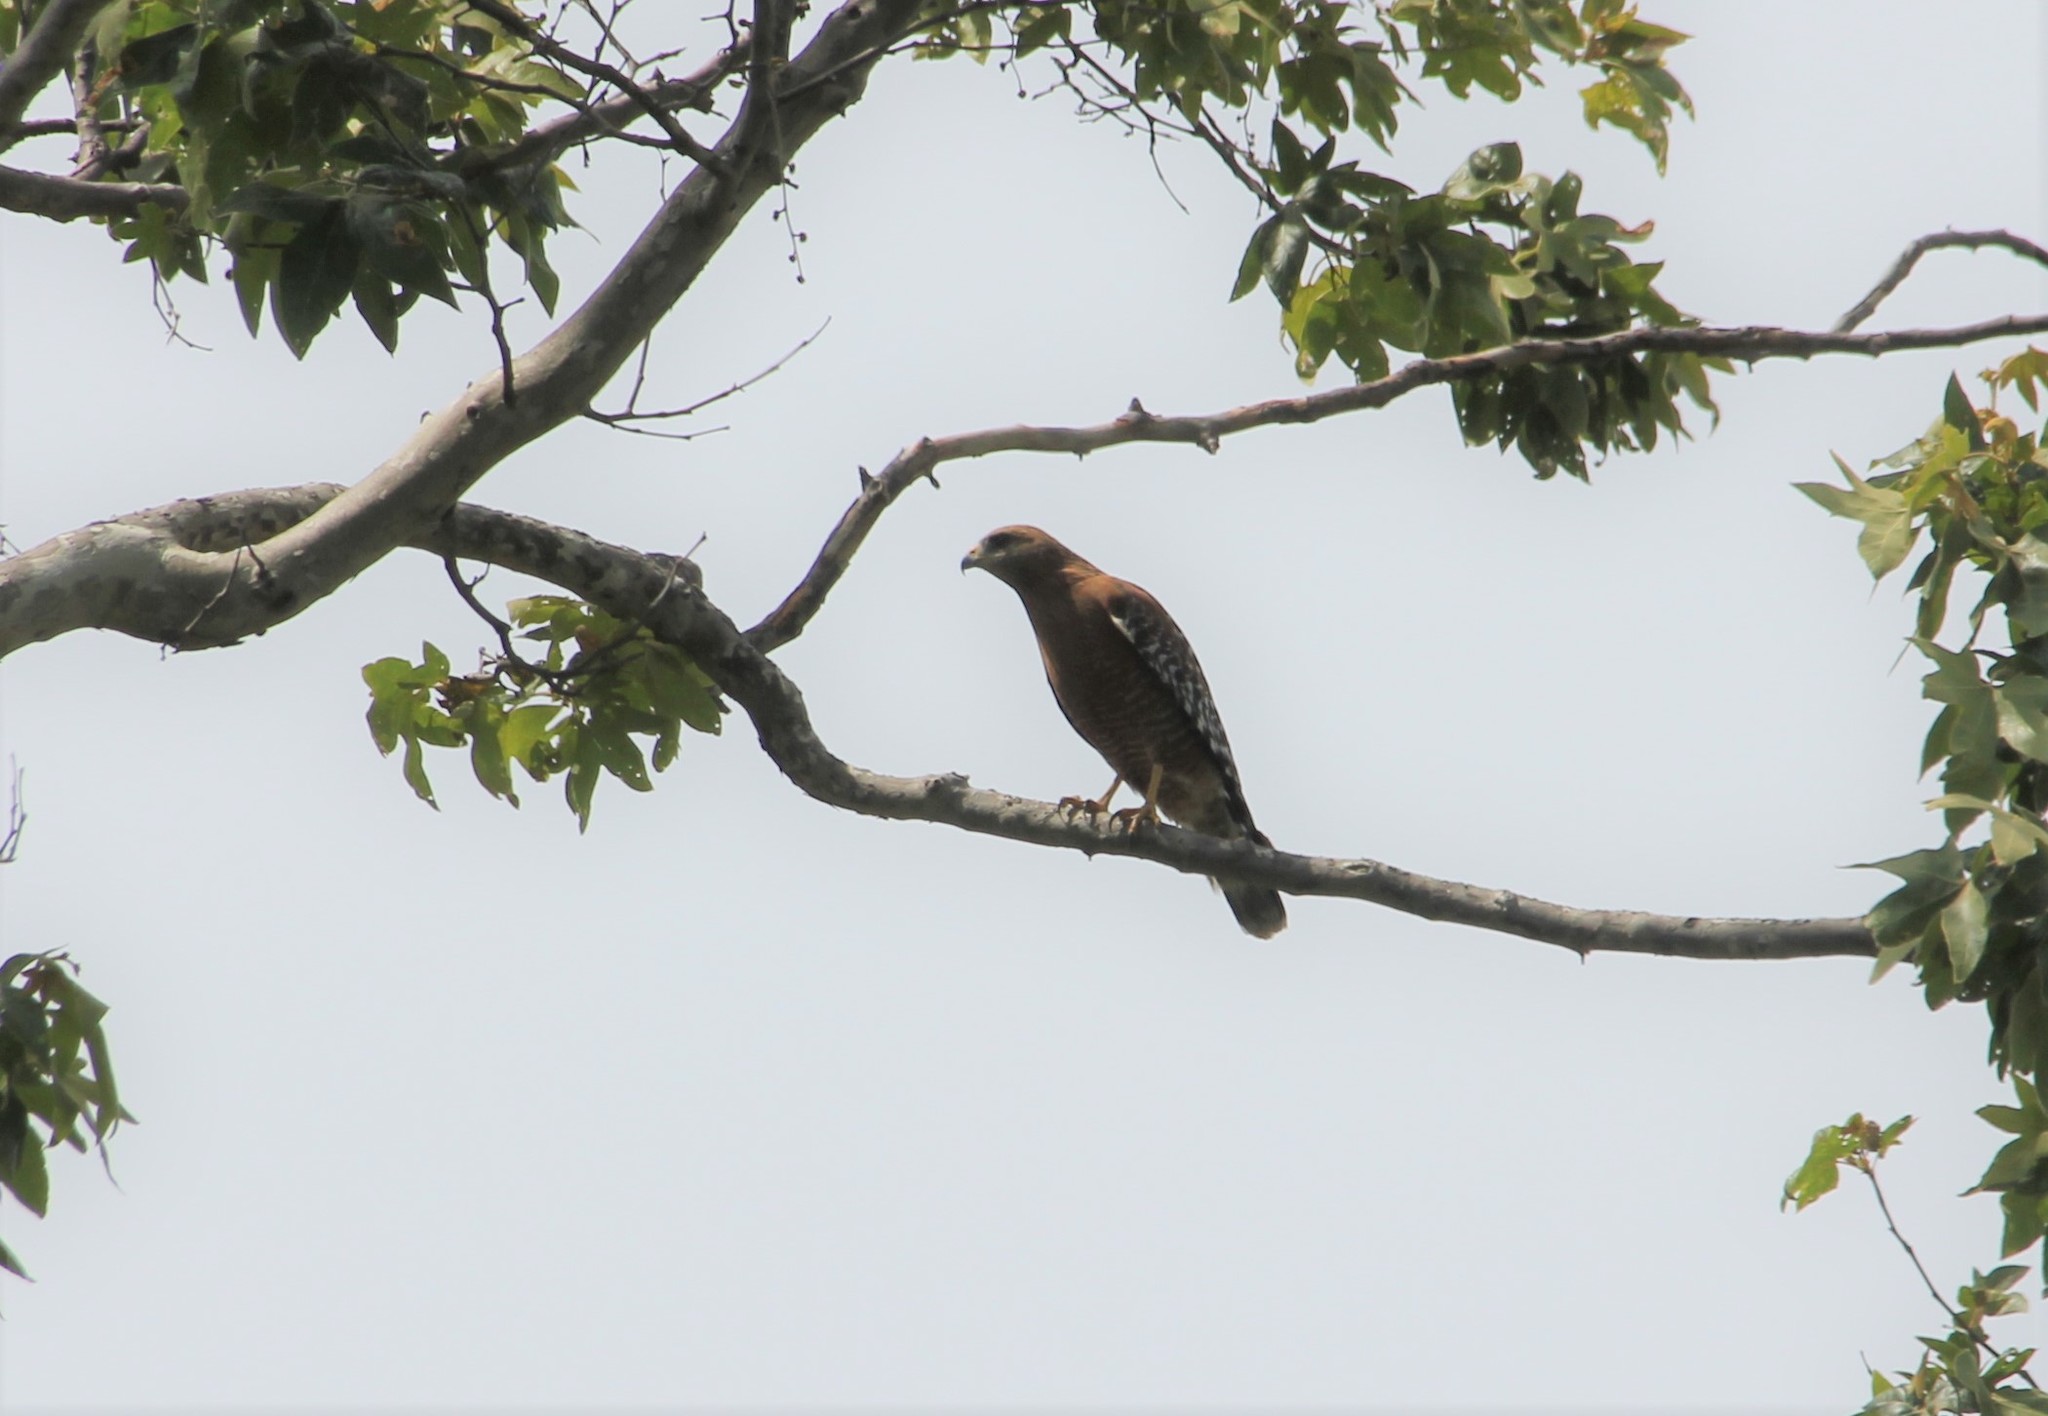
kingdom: Animalia
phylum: Chordata
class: Aves
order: Accipitriformes
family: Accipitridae
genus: Buteo
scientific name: Buteo lineatus
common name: Red-shouldered hawk
